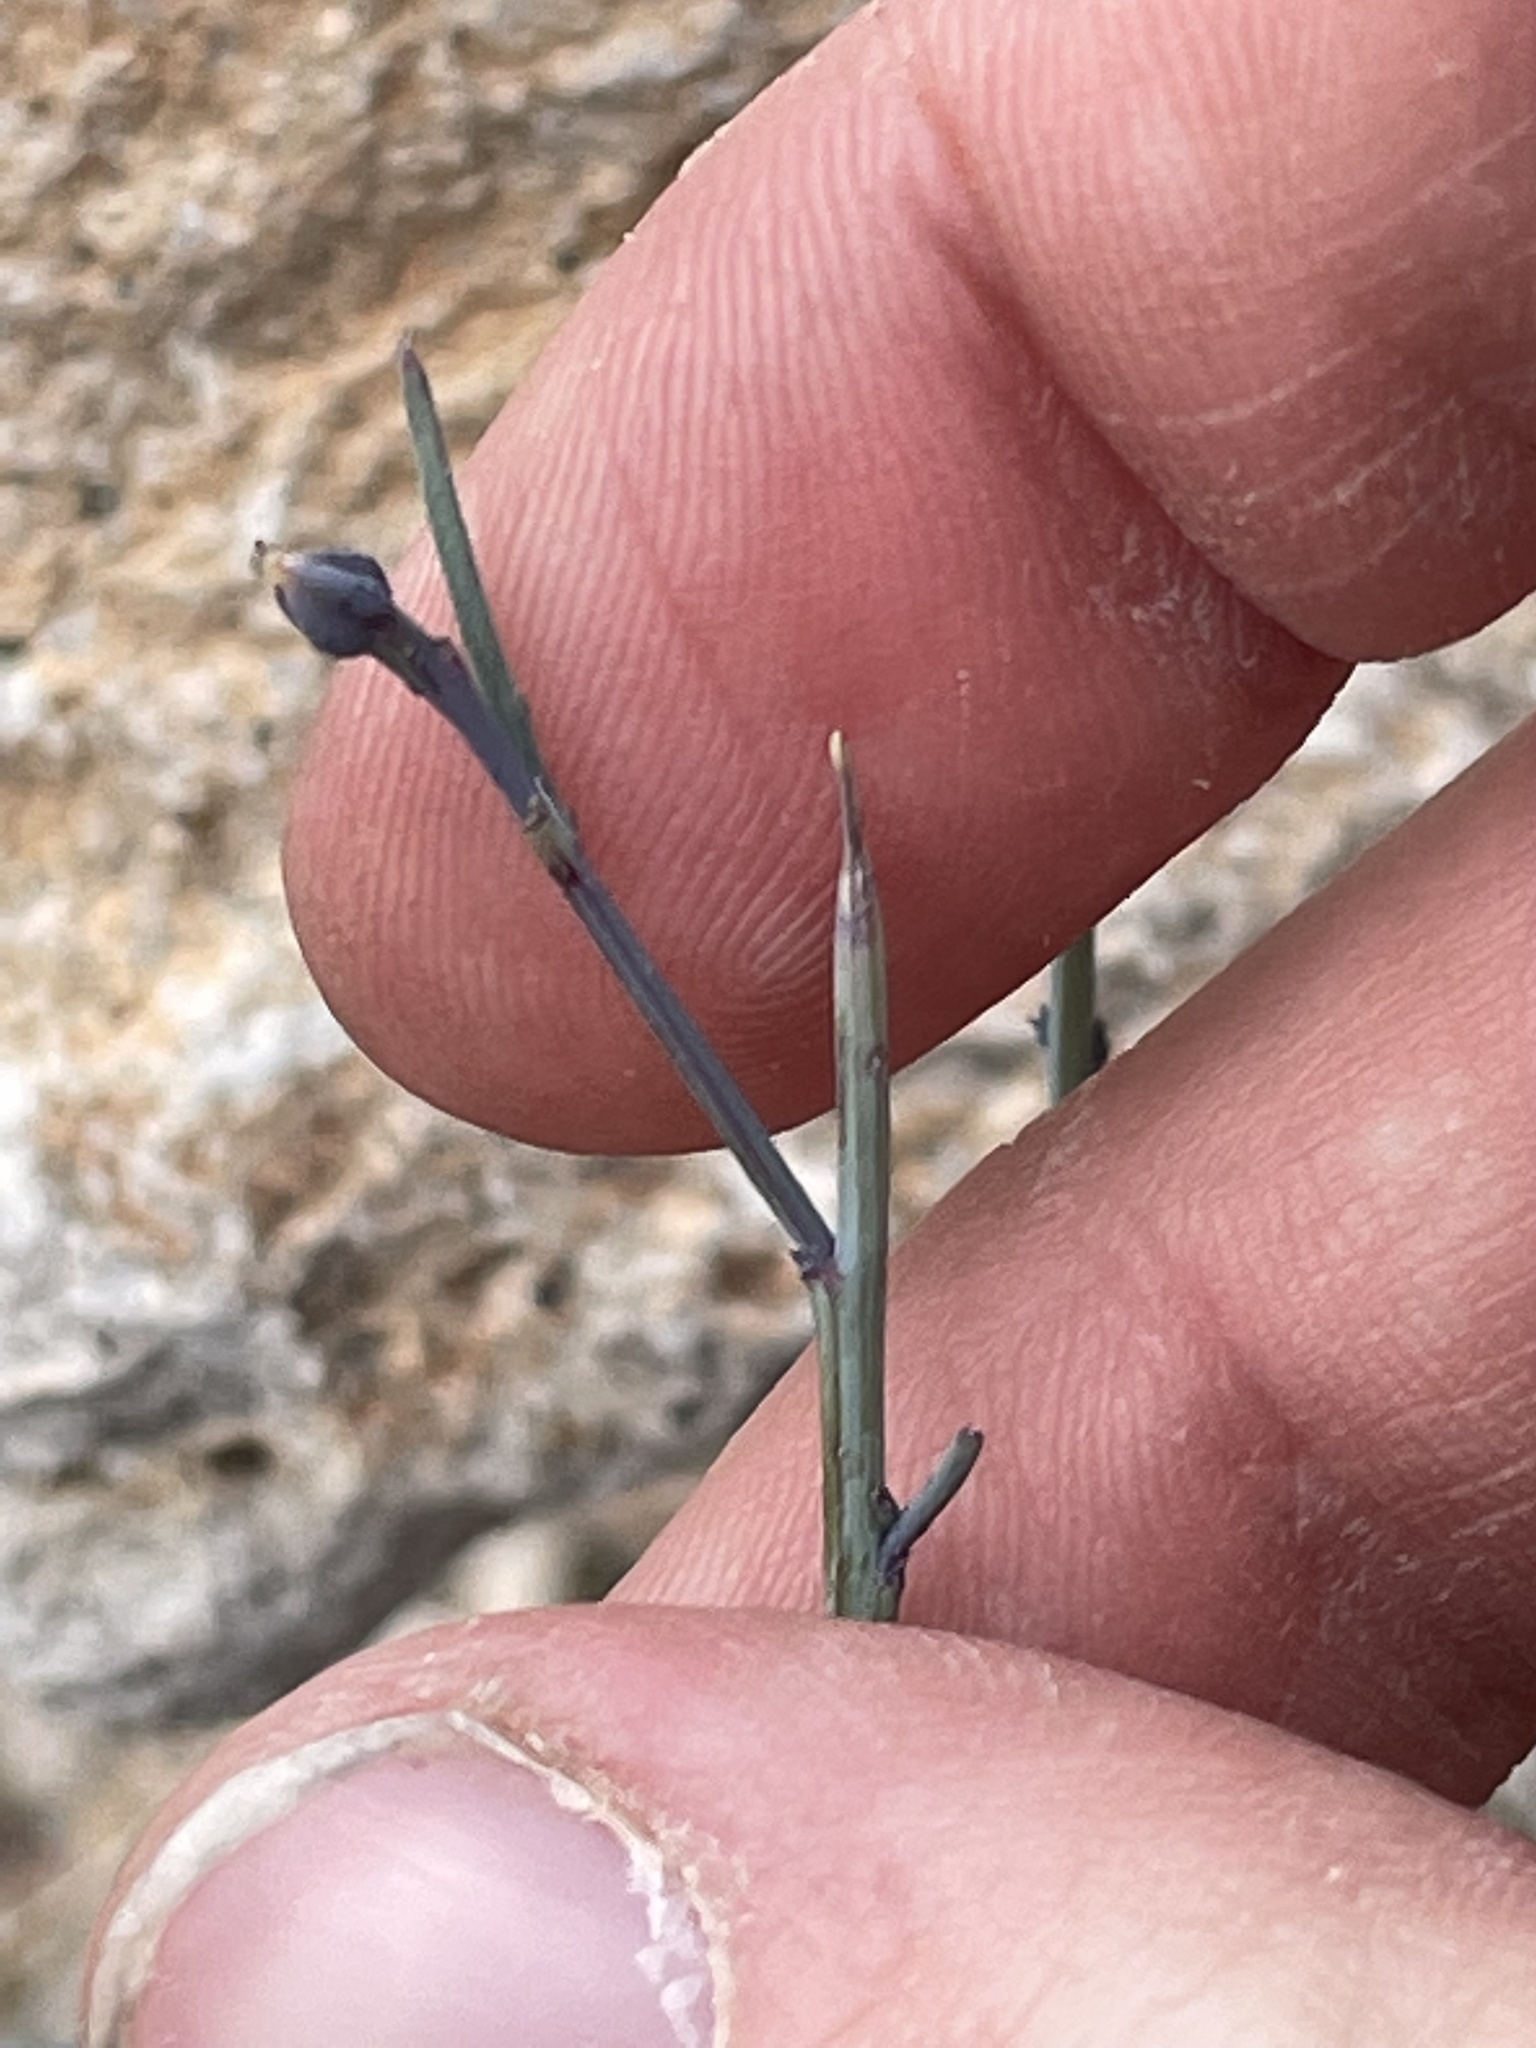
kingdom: Plantae
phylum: Tracheophyta
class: Magnoliopsida
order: Asterales
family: Asteraceae
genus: Porophyllum
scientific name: Porophyllum gracile
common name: Odora
